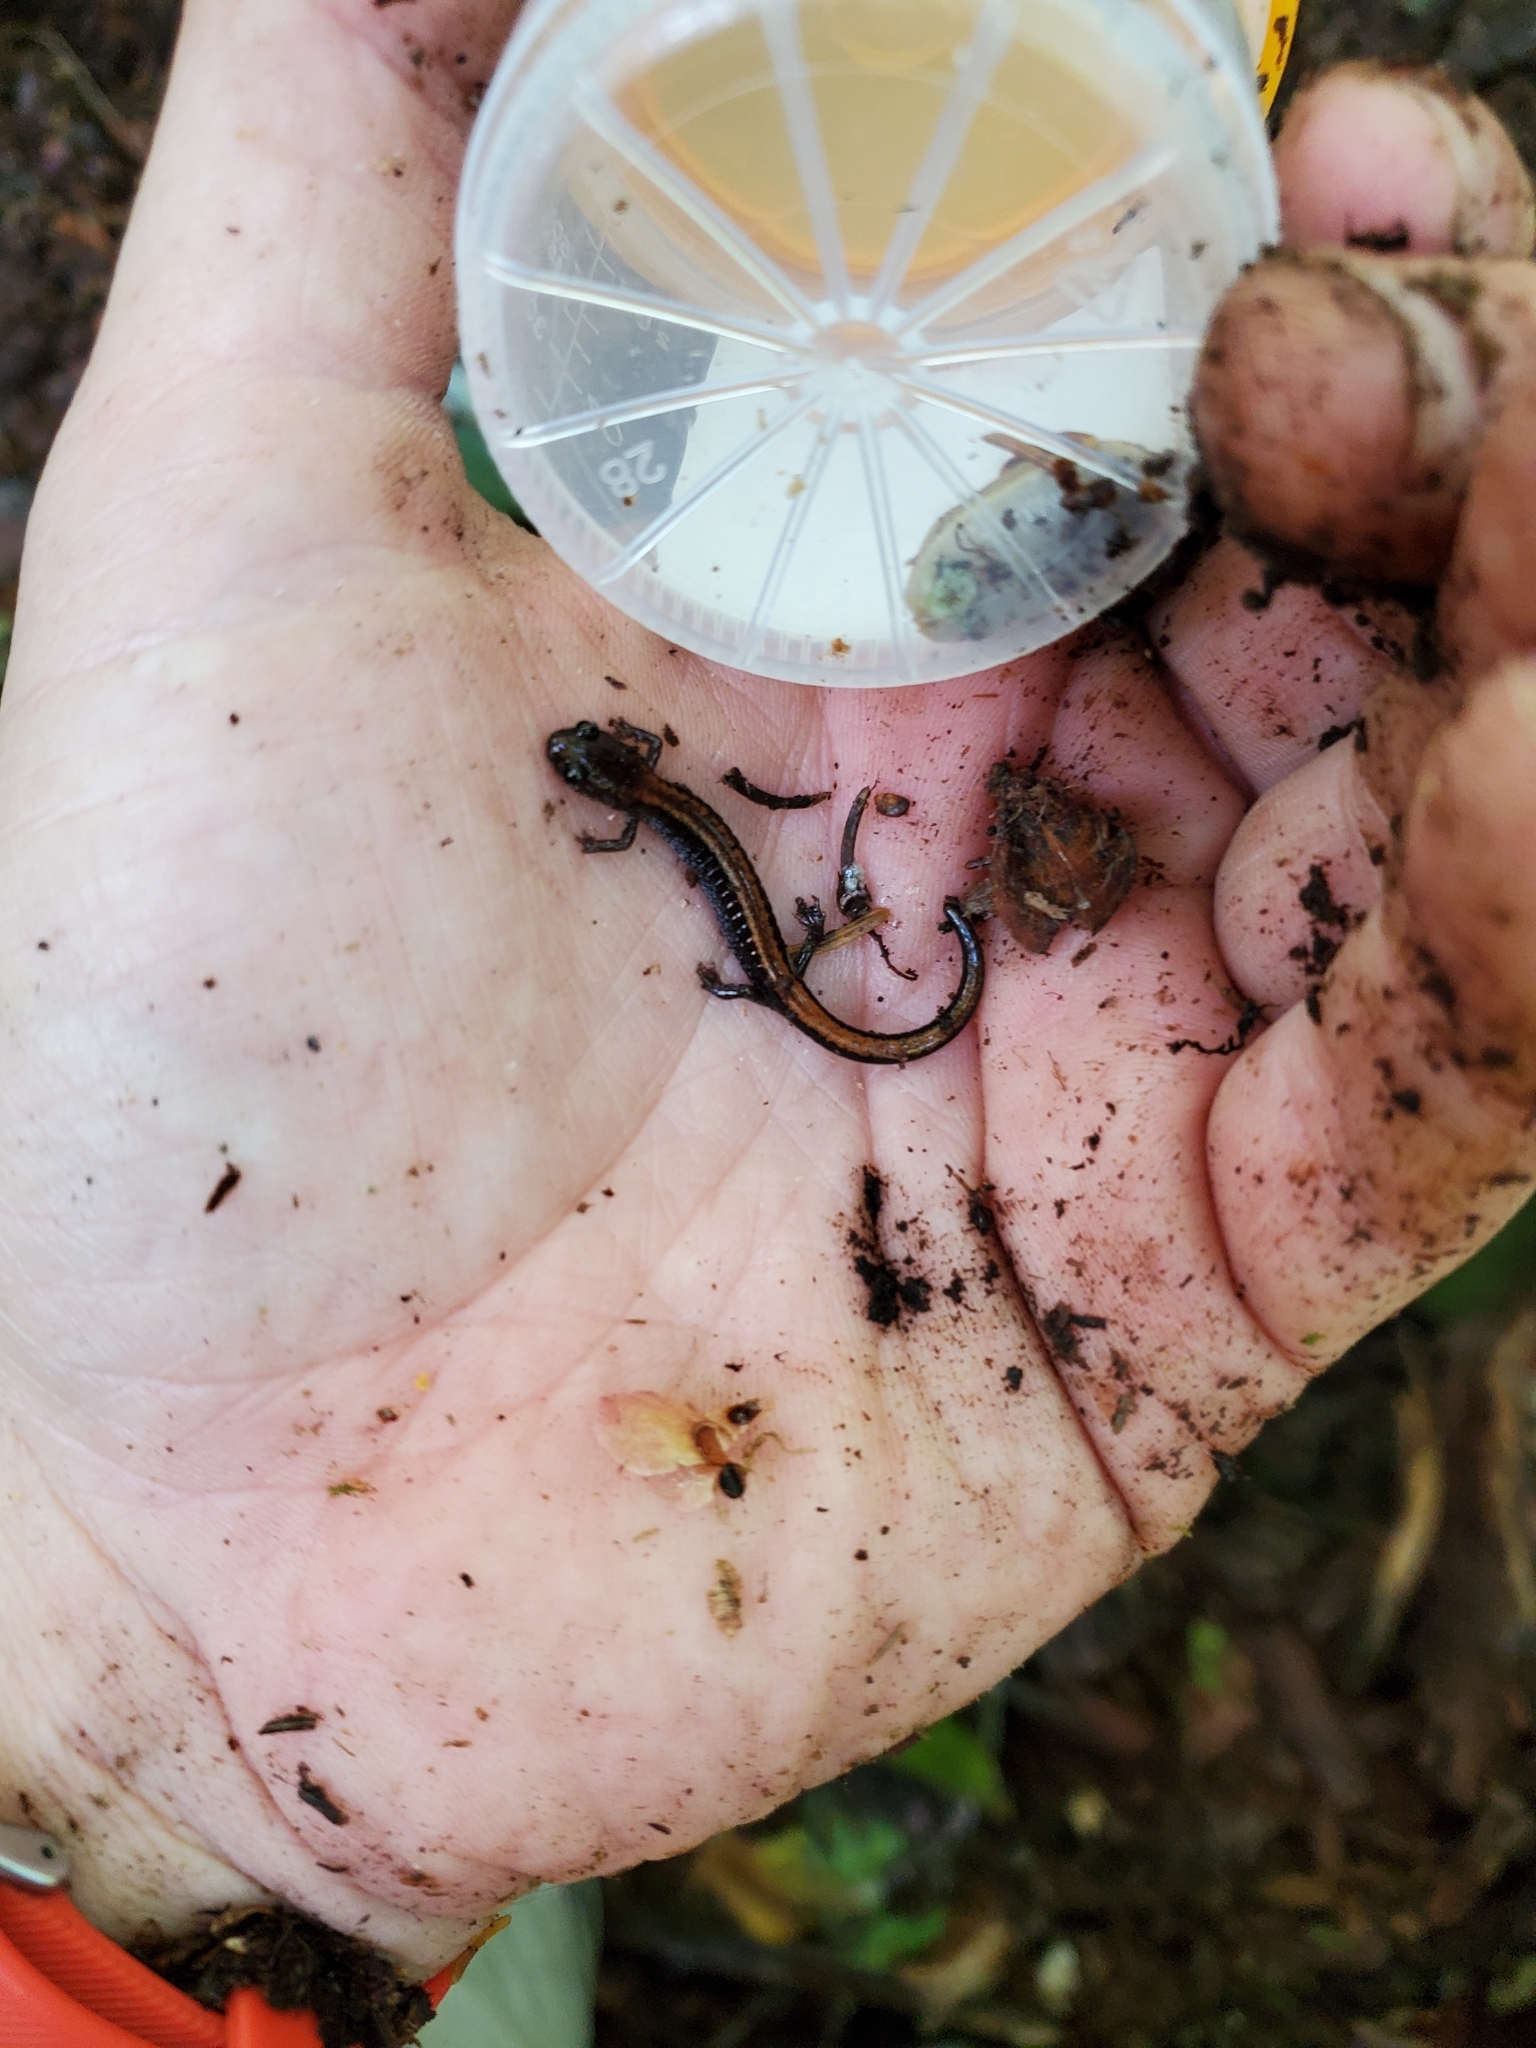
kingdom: Animalia
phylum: Chordata
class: Amphibia
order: Caudata
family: Plethodontidae
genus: Plethodon
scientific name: Plethodon cinereus
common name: Redback salamander
